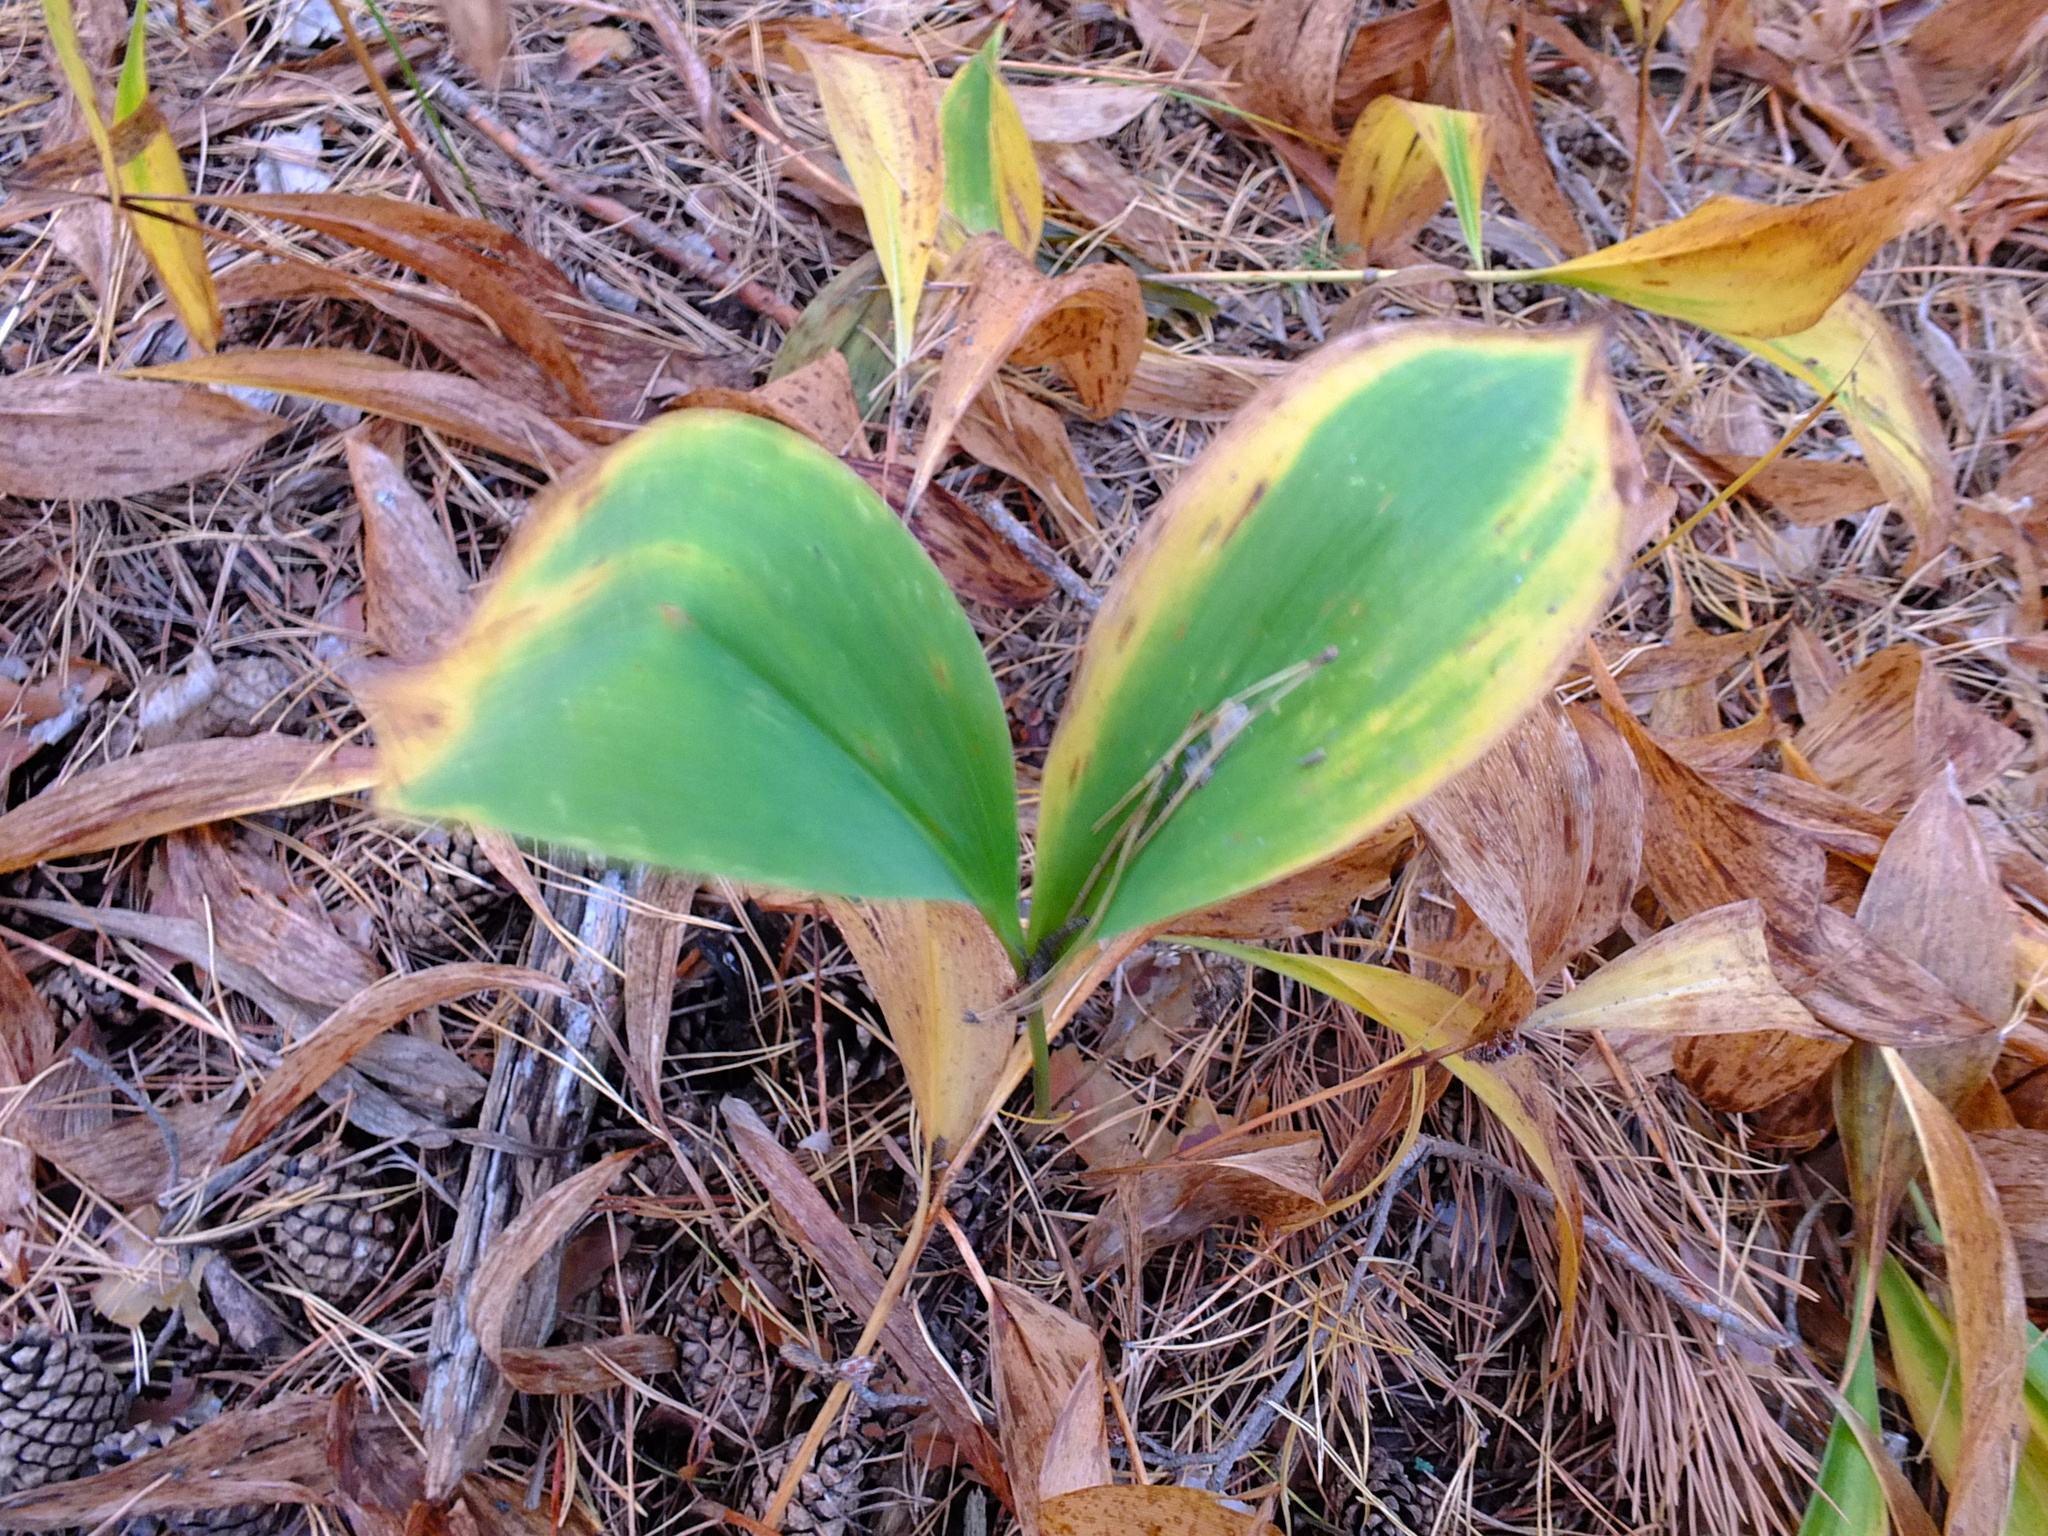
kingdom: Plantae
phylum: Tracheophyta
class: Liliopsida
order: Asparagales
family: Asparagaceae
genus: Convallaria
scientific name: Convallaria majalis
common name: Lily-of-the-valley
